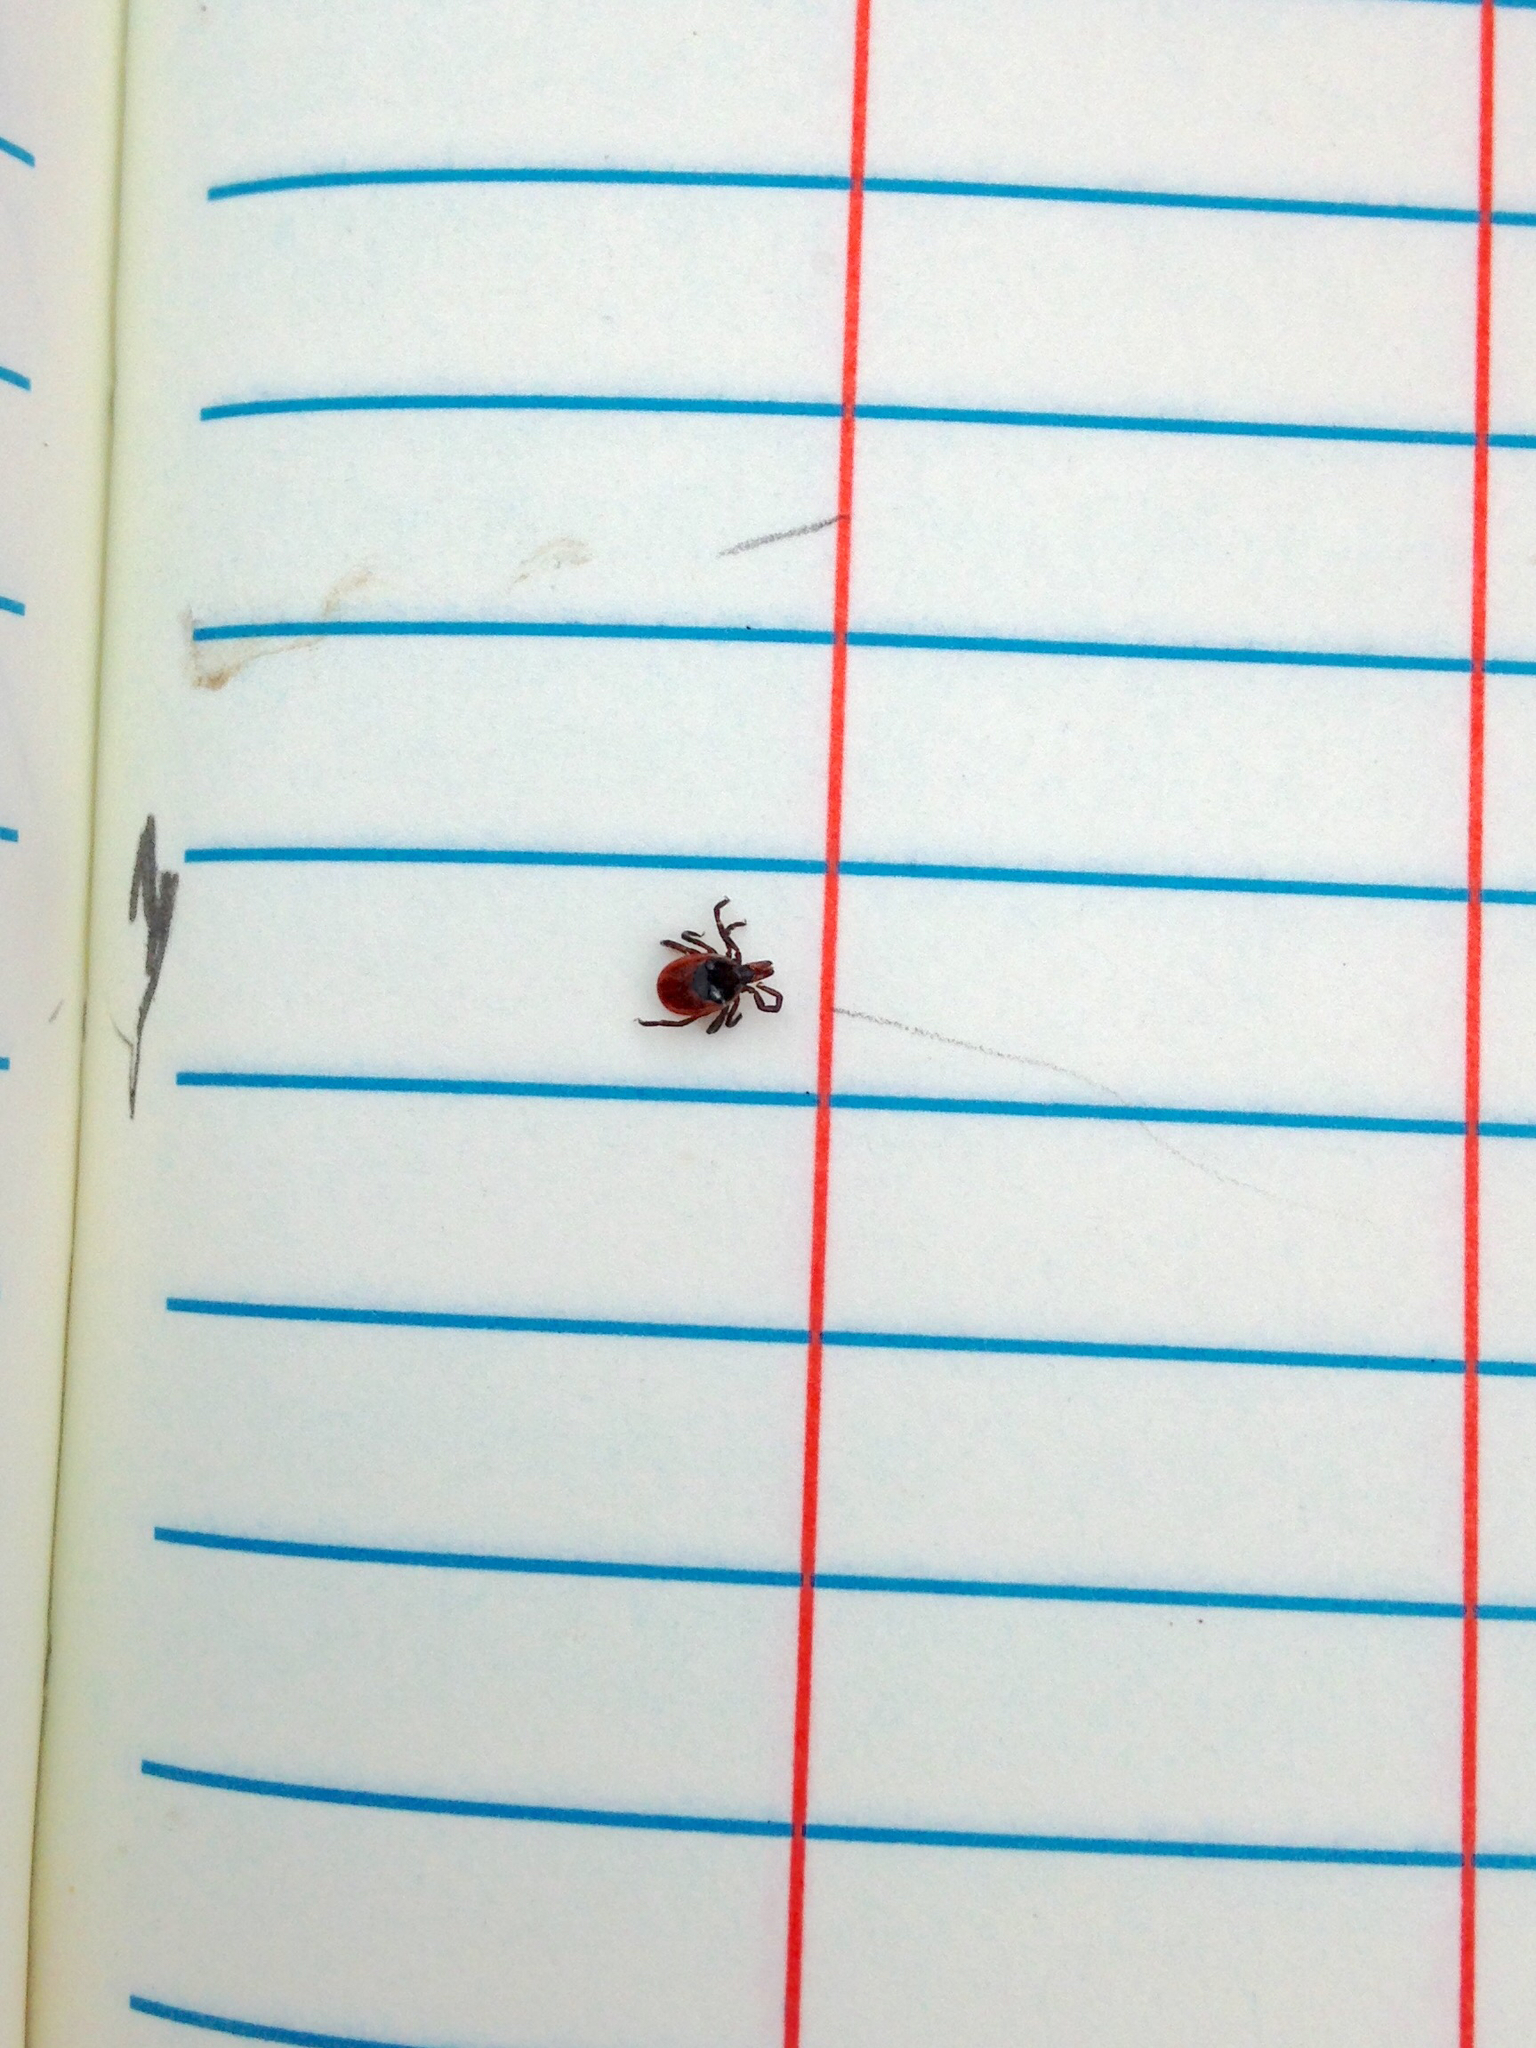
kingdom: Animalia
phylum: Arthropoda
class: Arachnida
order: Ixodida
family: Ixodidae
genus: Ixodes
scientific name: Ixodes scapularis
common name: Black legged tick
